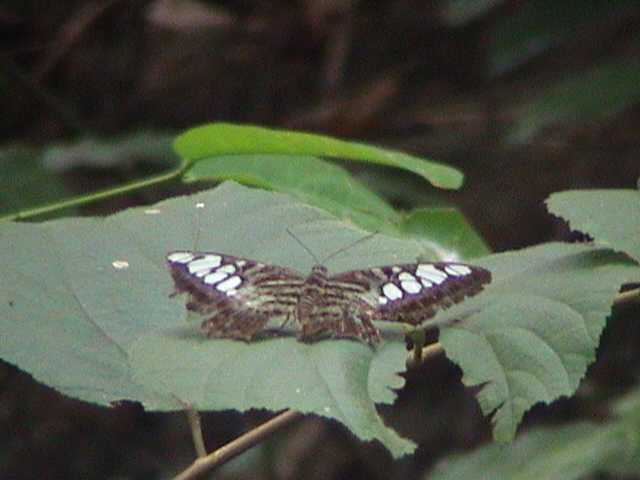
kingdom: Animalia
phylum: Arthropoda
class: Insecta
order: Lepidoptera
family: Nymphalidae
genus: Kallima
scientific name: Kallima sylvia
